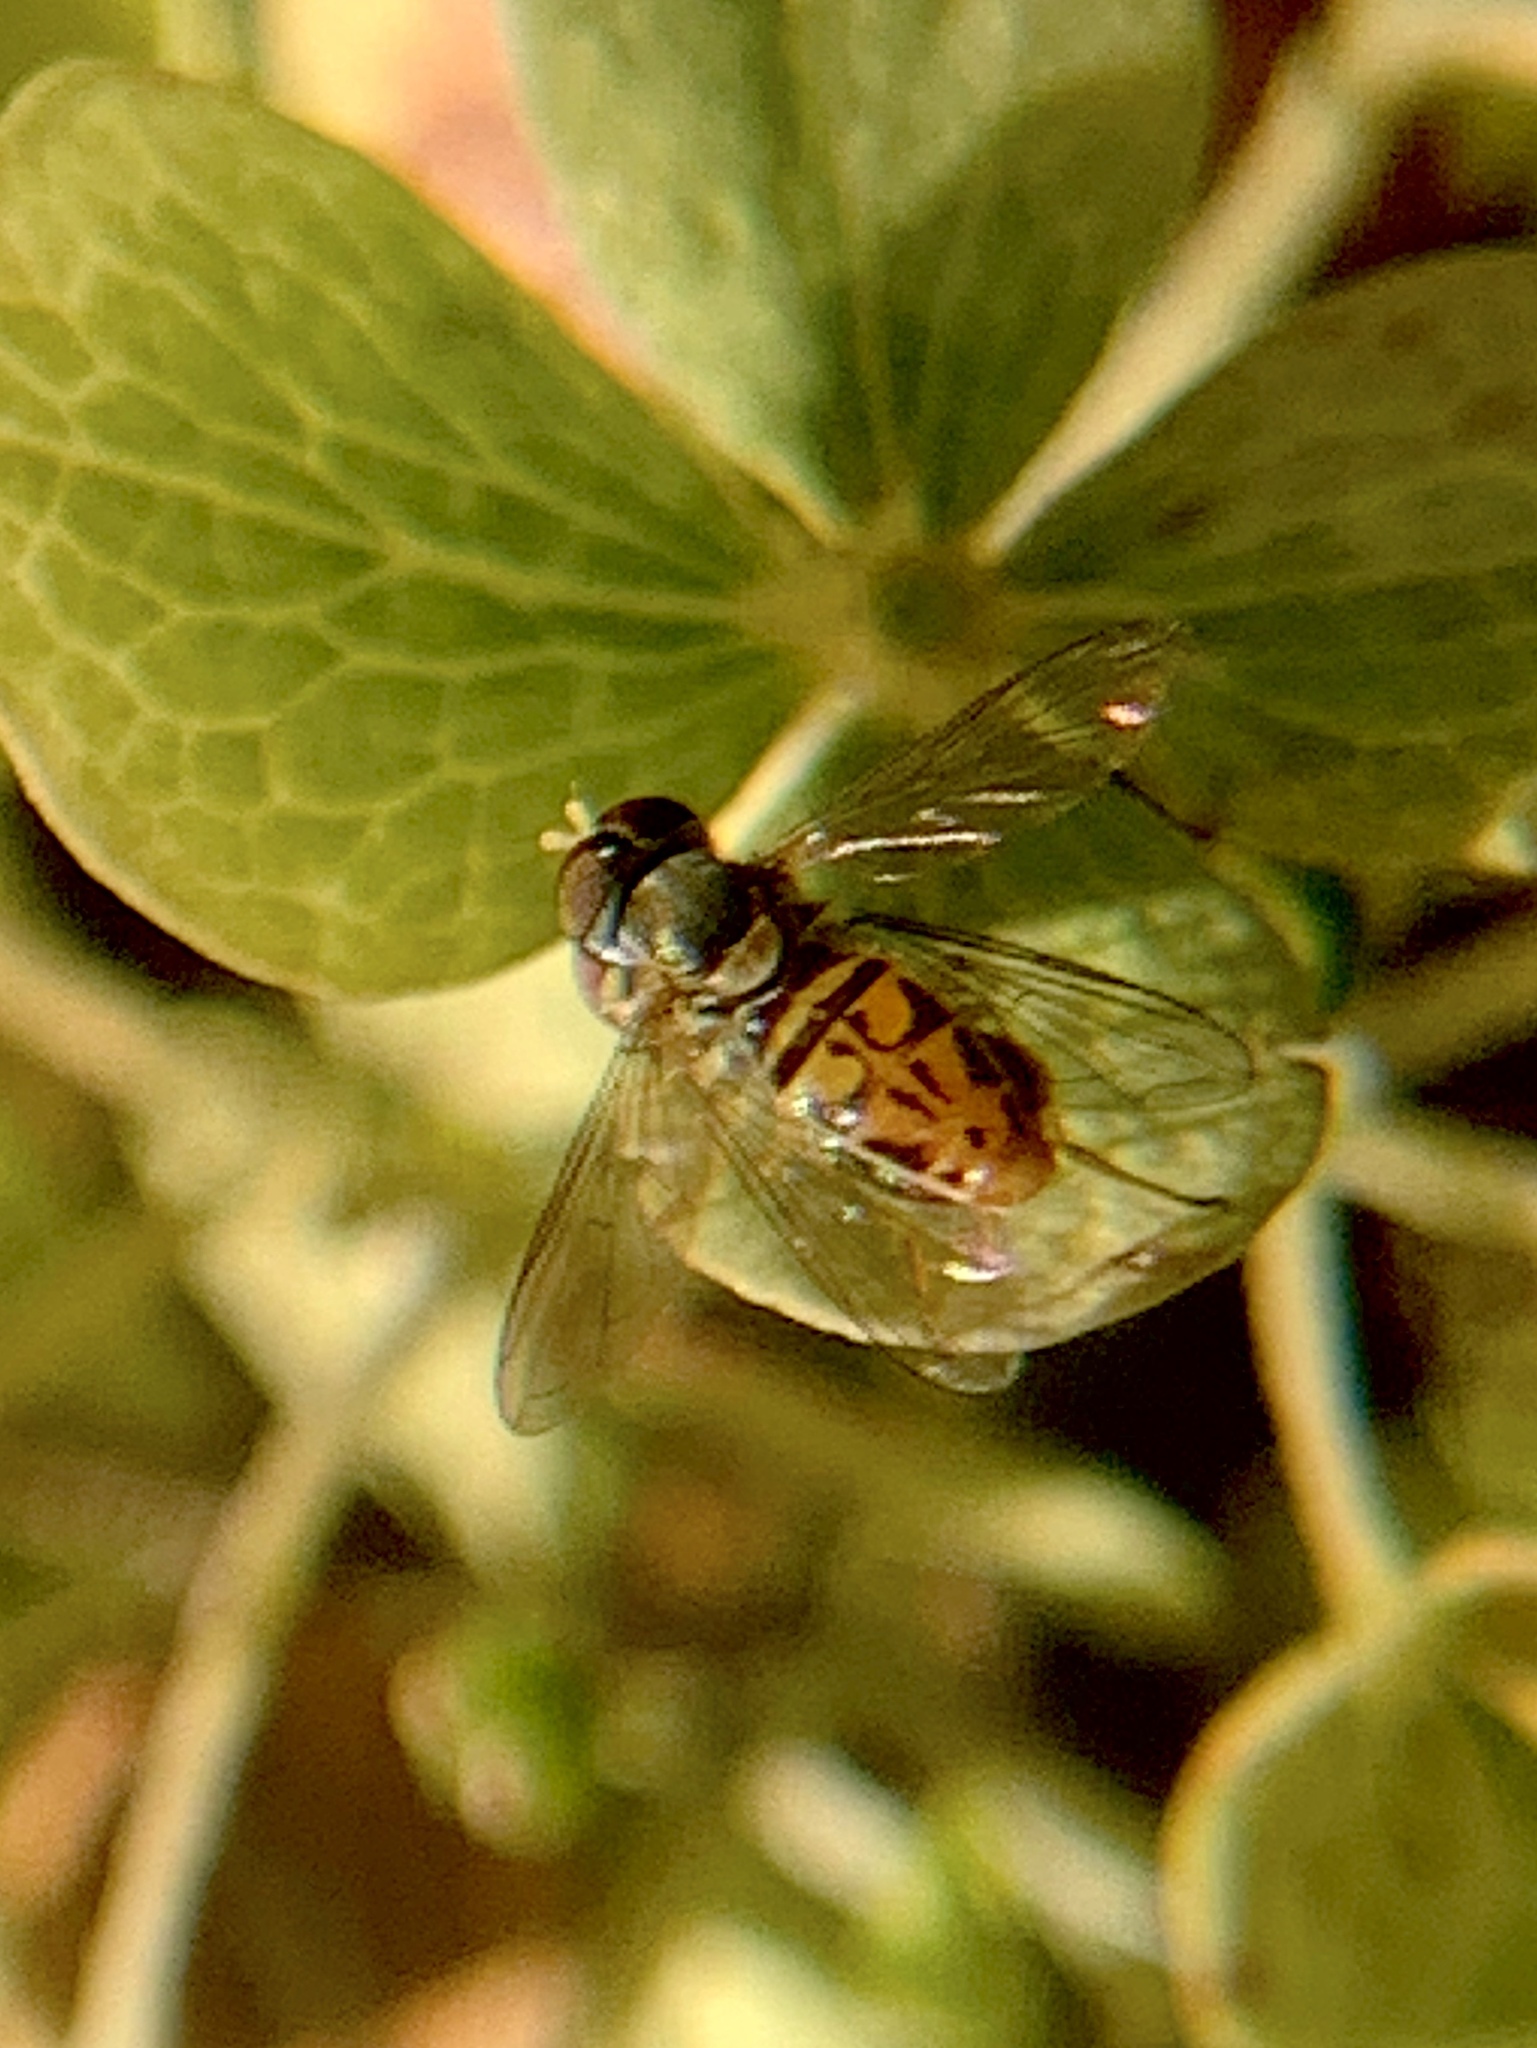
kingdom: Animalia
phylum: Arthropoda
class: Insecta
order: Diptera
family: Syrphidae
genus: Toxomerus
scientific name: Toxomerus marginatus
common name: Syrphid fly
